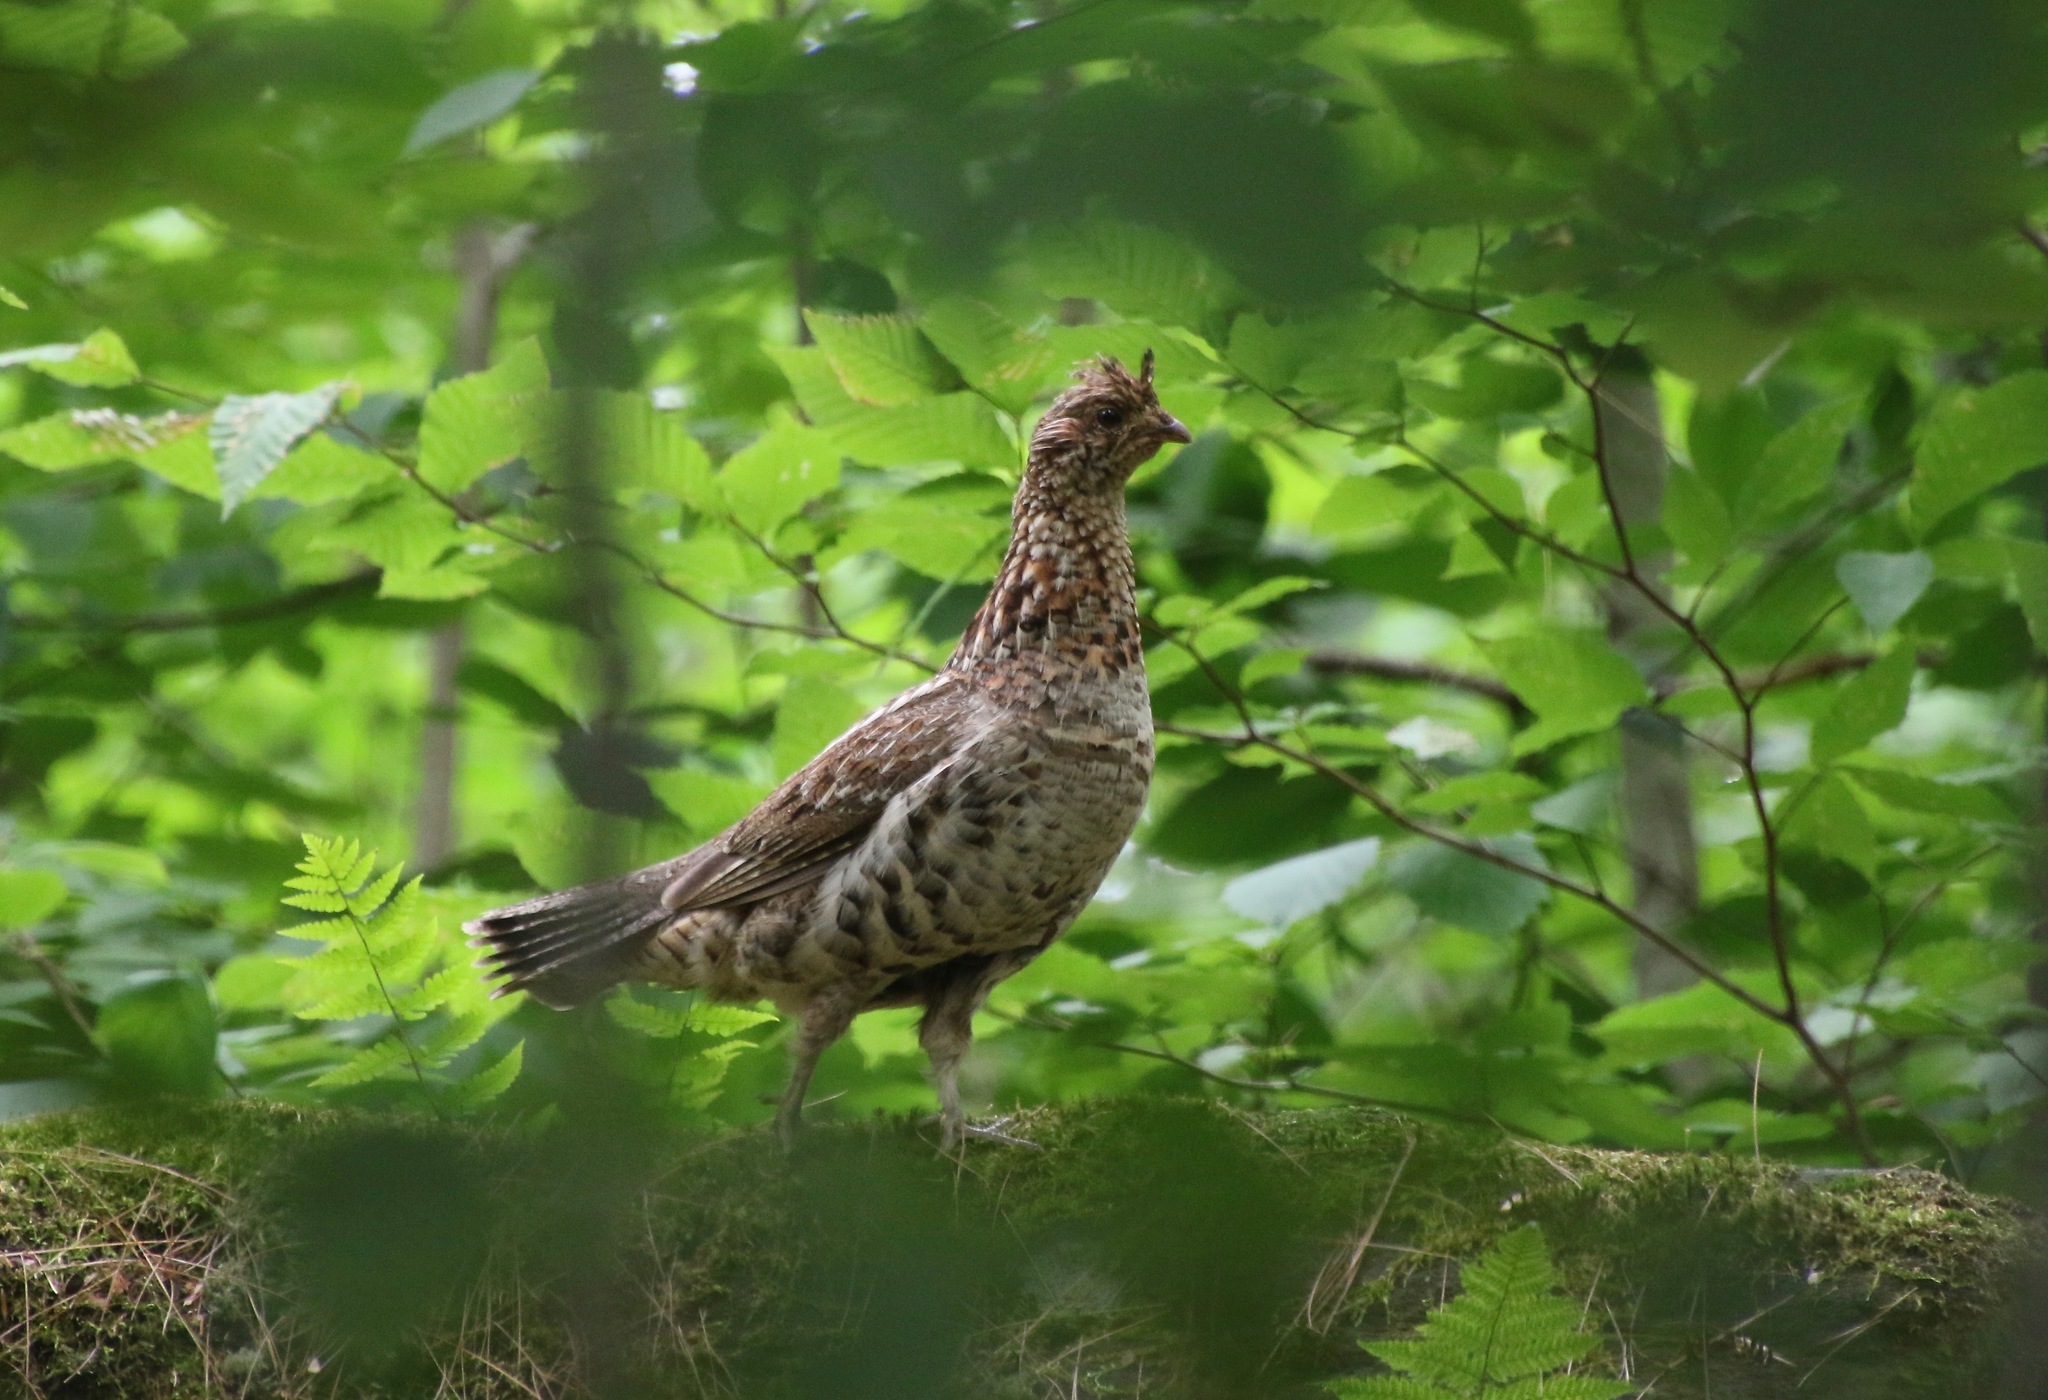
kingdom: Animalia
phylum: Chordata
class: Aves
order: Galliformes
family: Phasianidae
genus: Bonasa
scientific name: Bonasa umbellus
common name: Ruffed grouse
